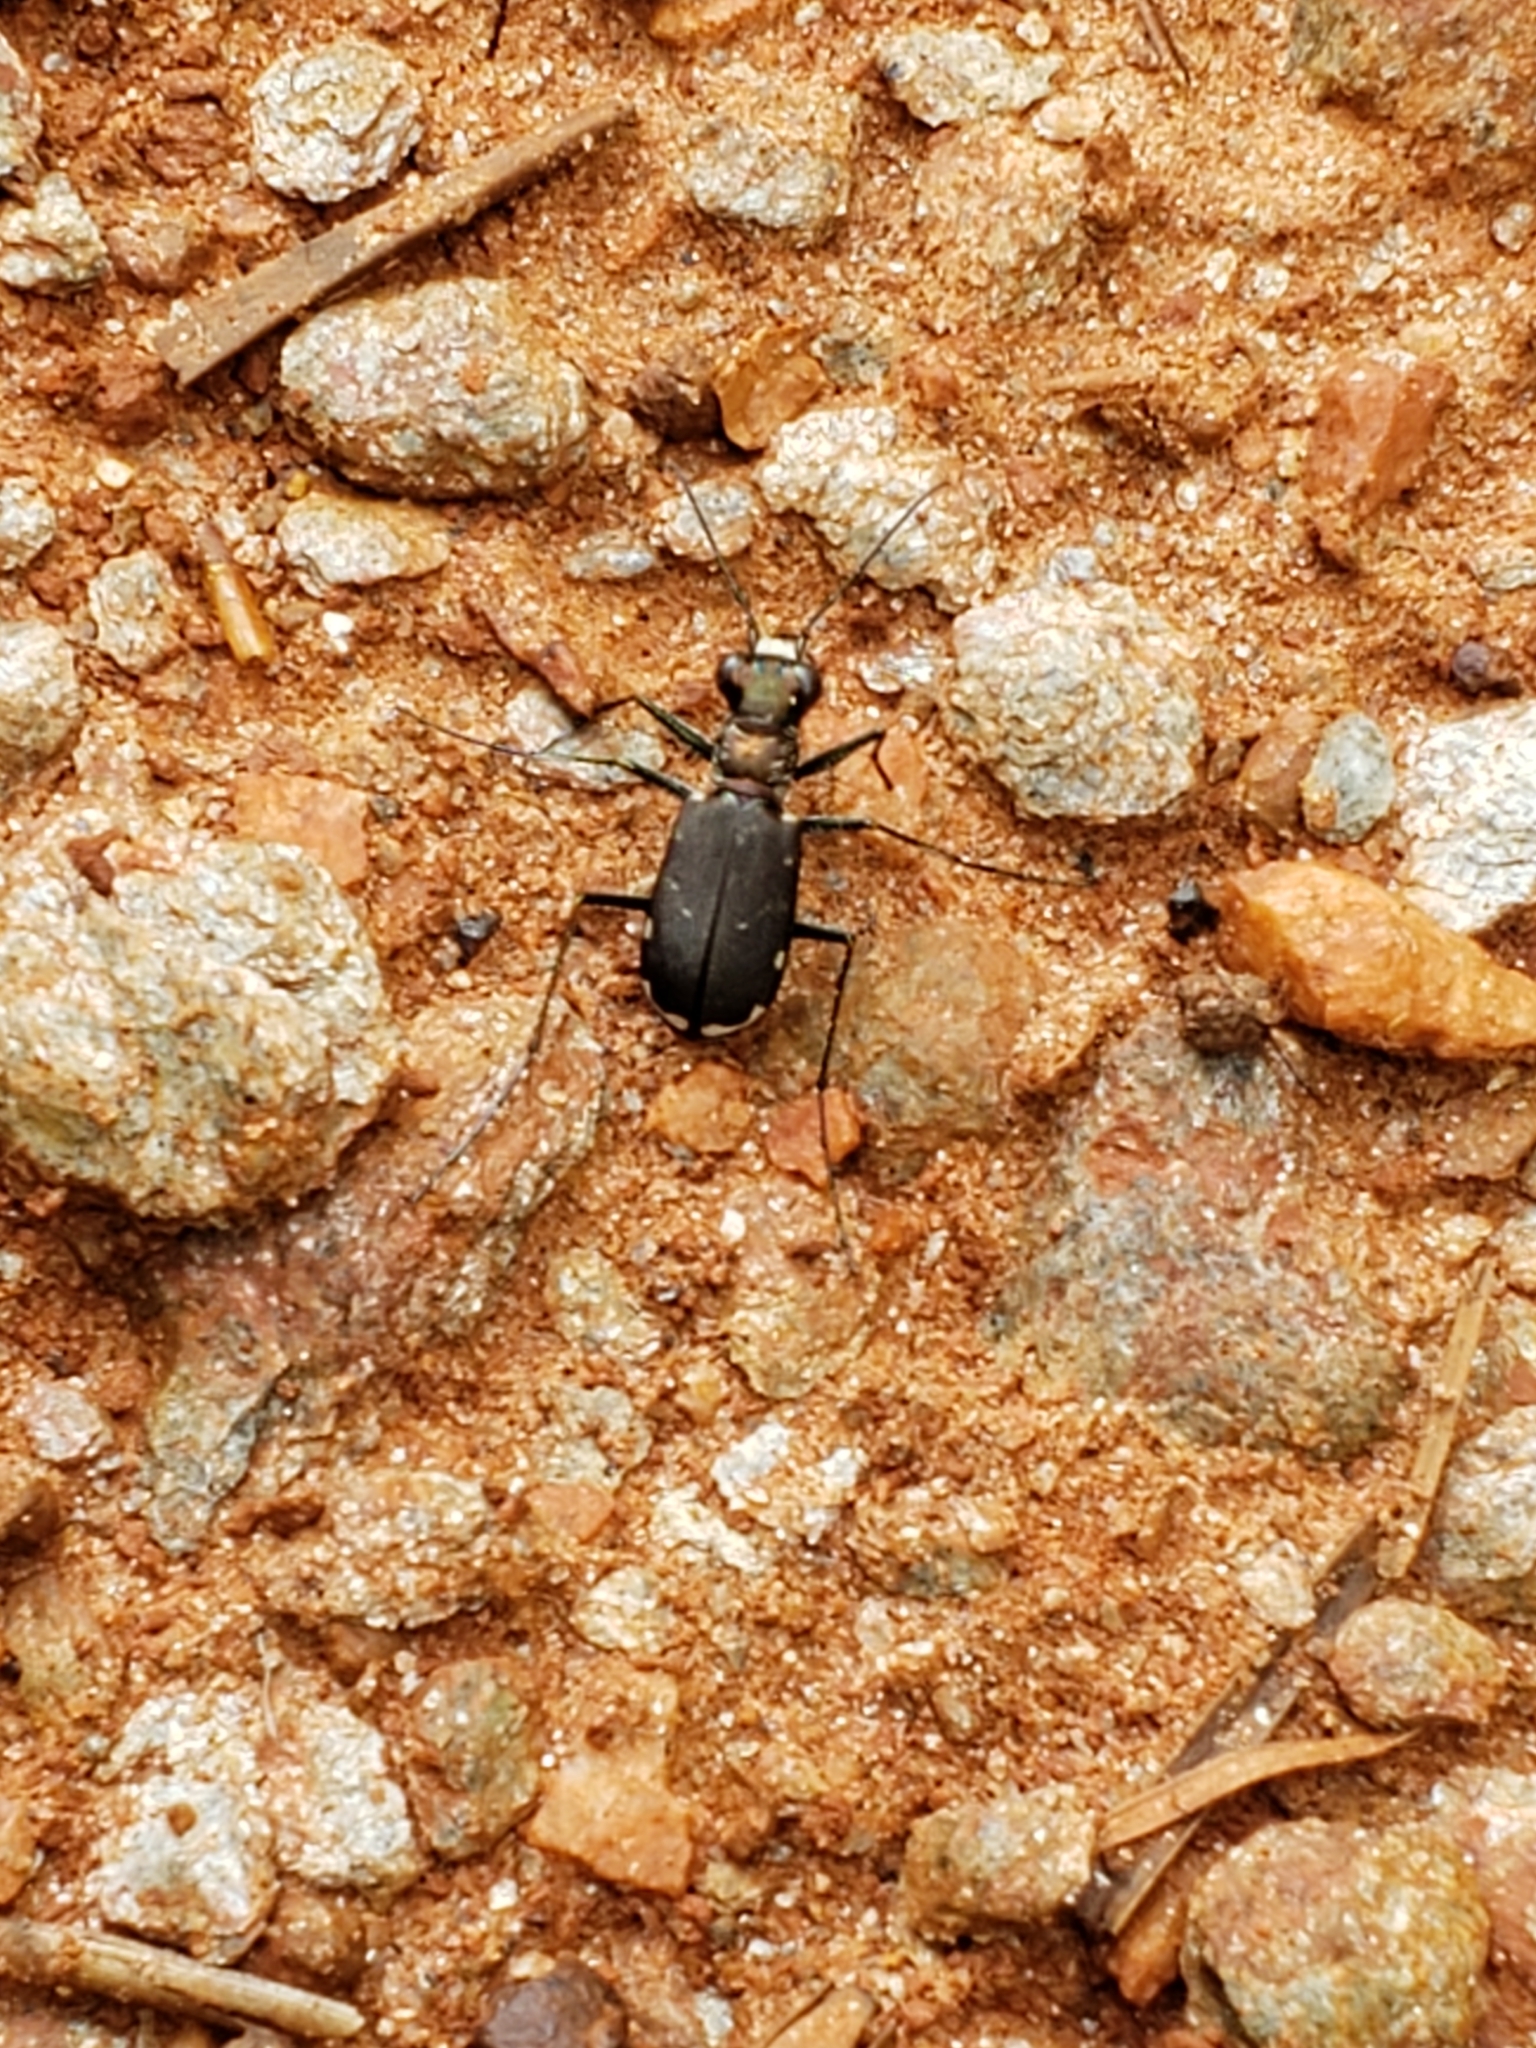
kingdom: Animalia
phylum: Arthropoda
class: Insecta
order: Coleoptera
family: Carabidae
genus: Cicindela
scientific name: Cicindela rufiventris
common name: Eastern red-bellied tiger beetle
